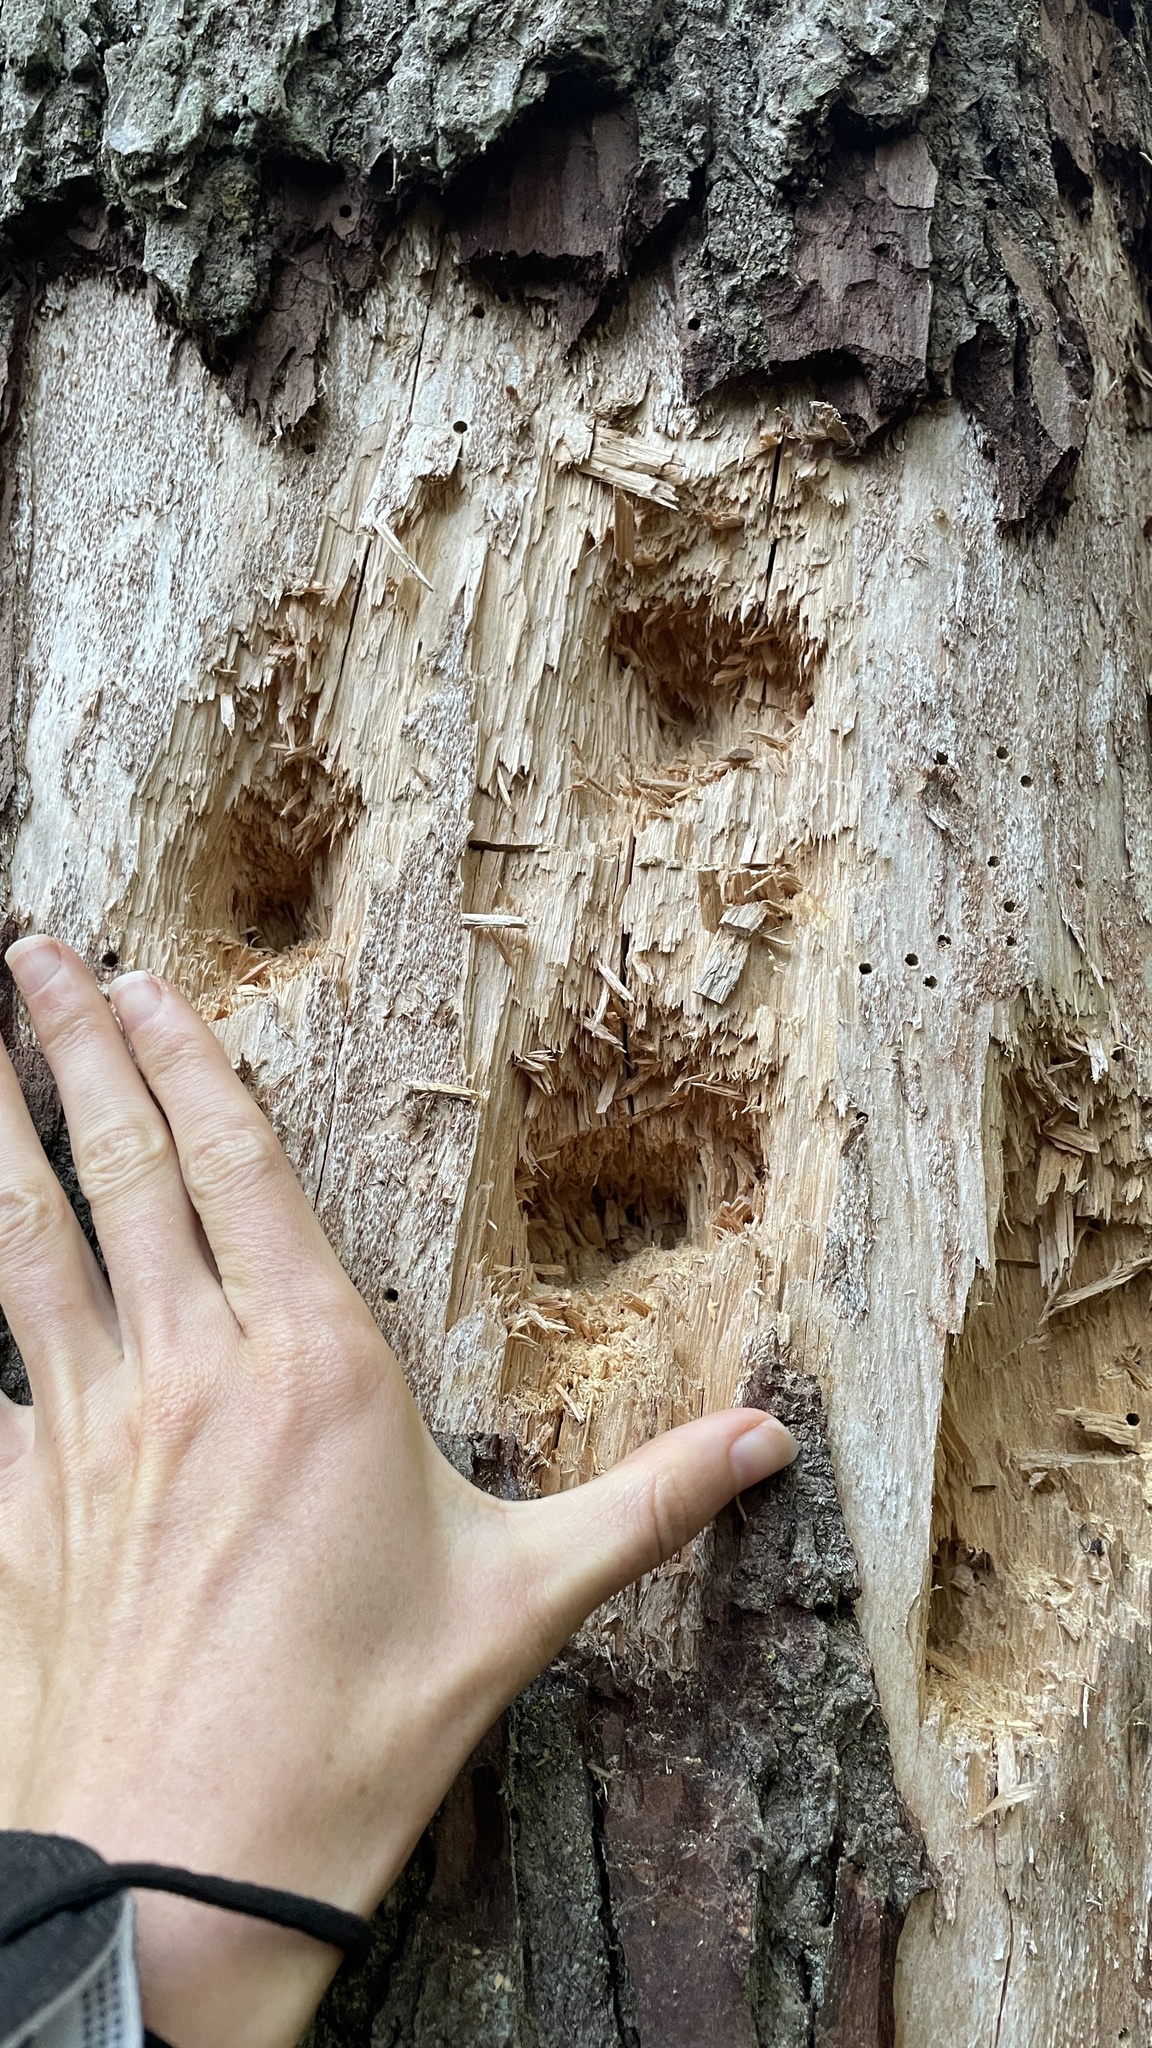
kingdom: Animalia
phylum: Chordata
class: Aves
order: Piciformes
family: Picidae
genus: Dryocopus
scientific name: Dryocopus pileatus
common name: Pileated woodpecker
